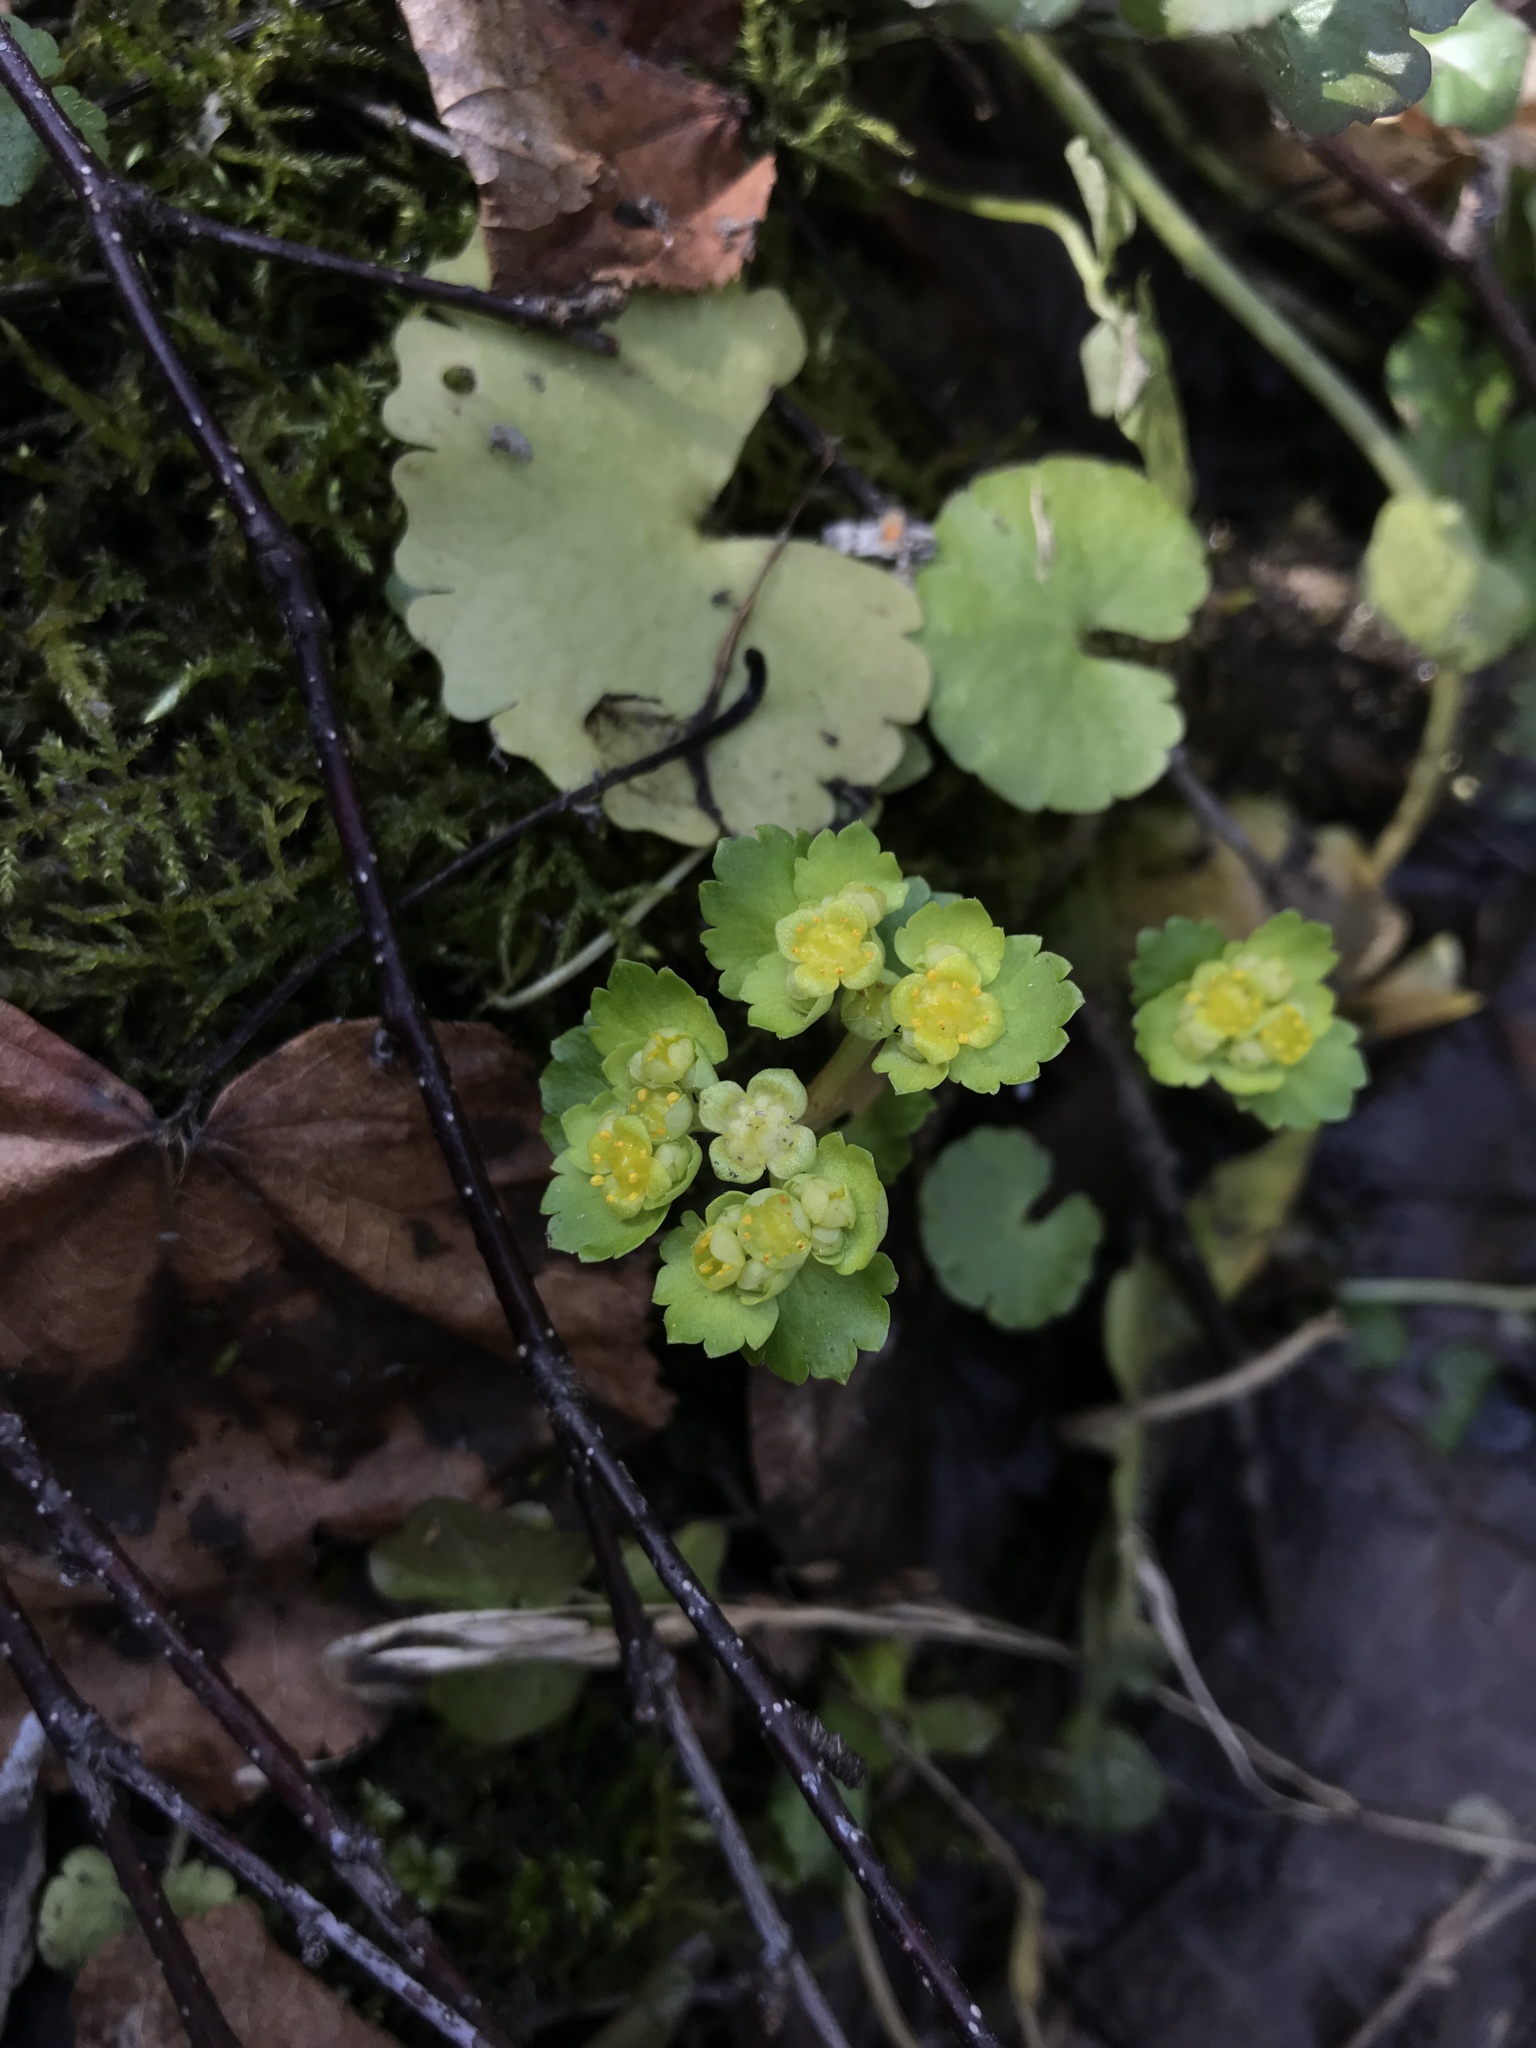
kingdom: Plantae
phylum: Tracheophyta
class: Magnoliopsida
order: Saxifragales
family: Saxifragaceae
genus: Chrysosplenium
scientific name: Chrysosplenium alternifolium
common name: Alternate-leaved golden-saxifrage
